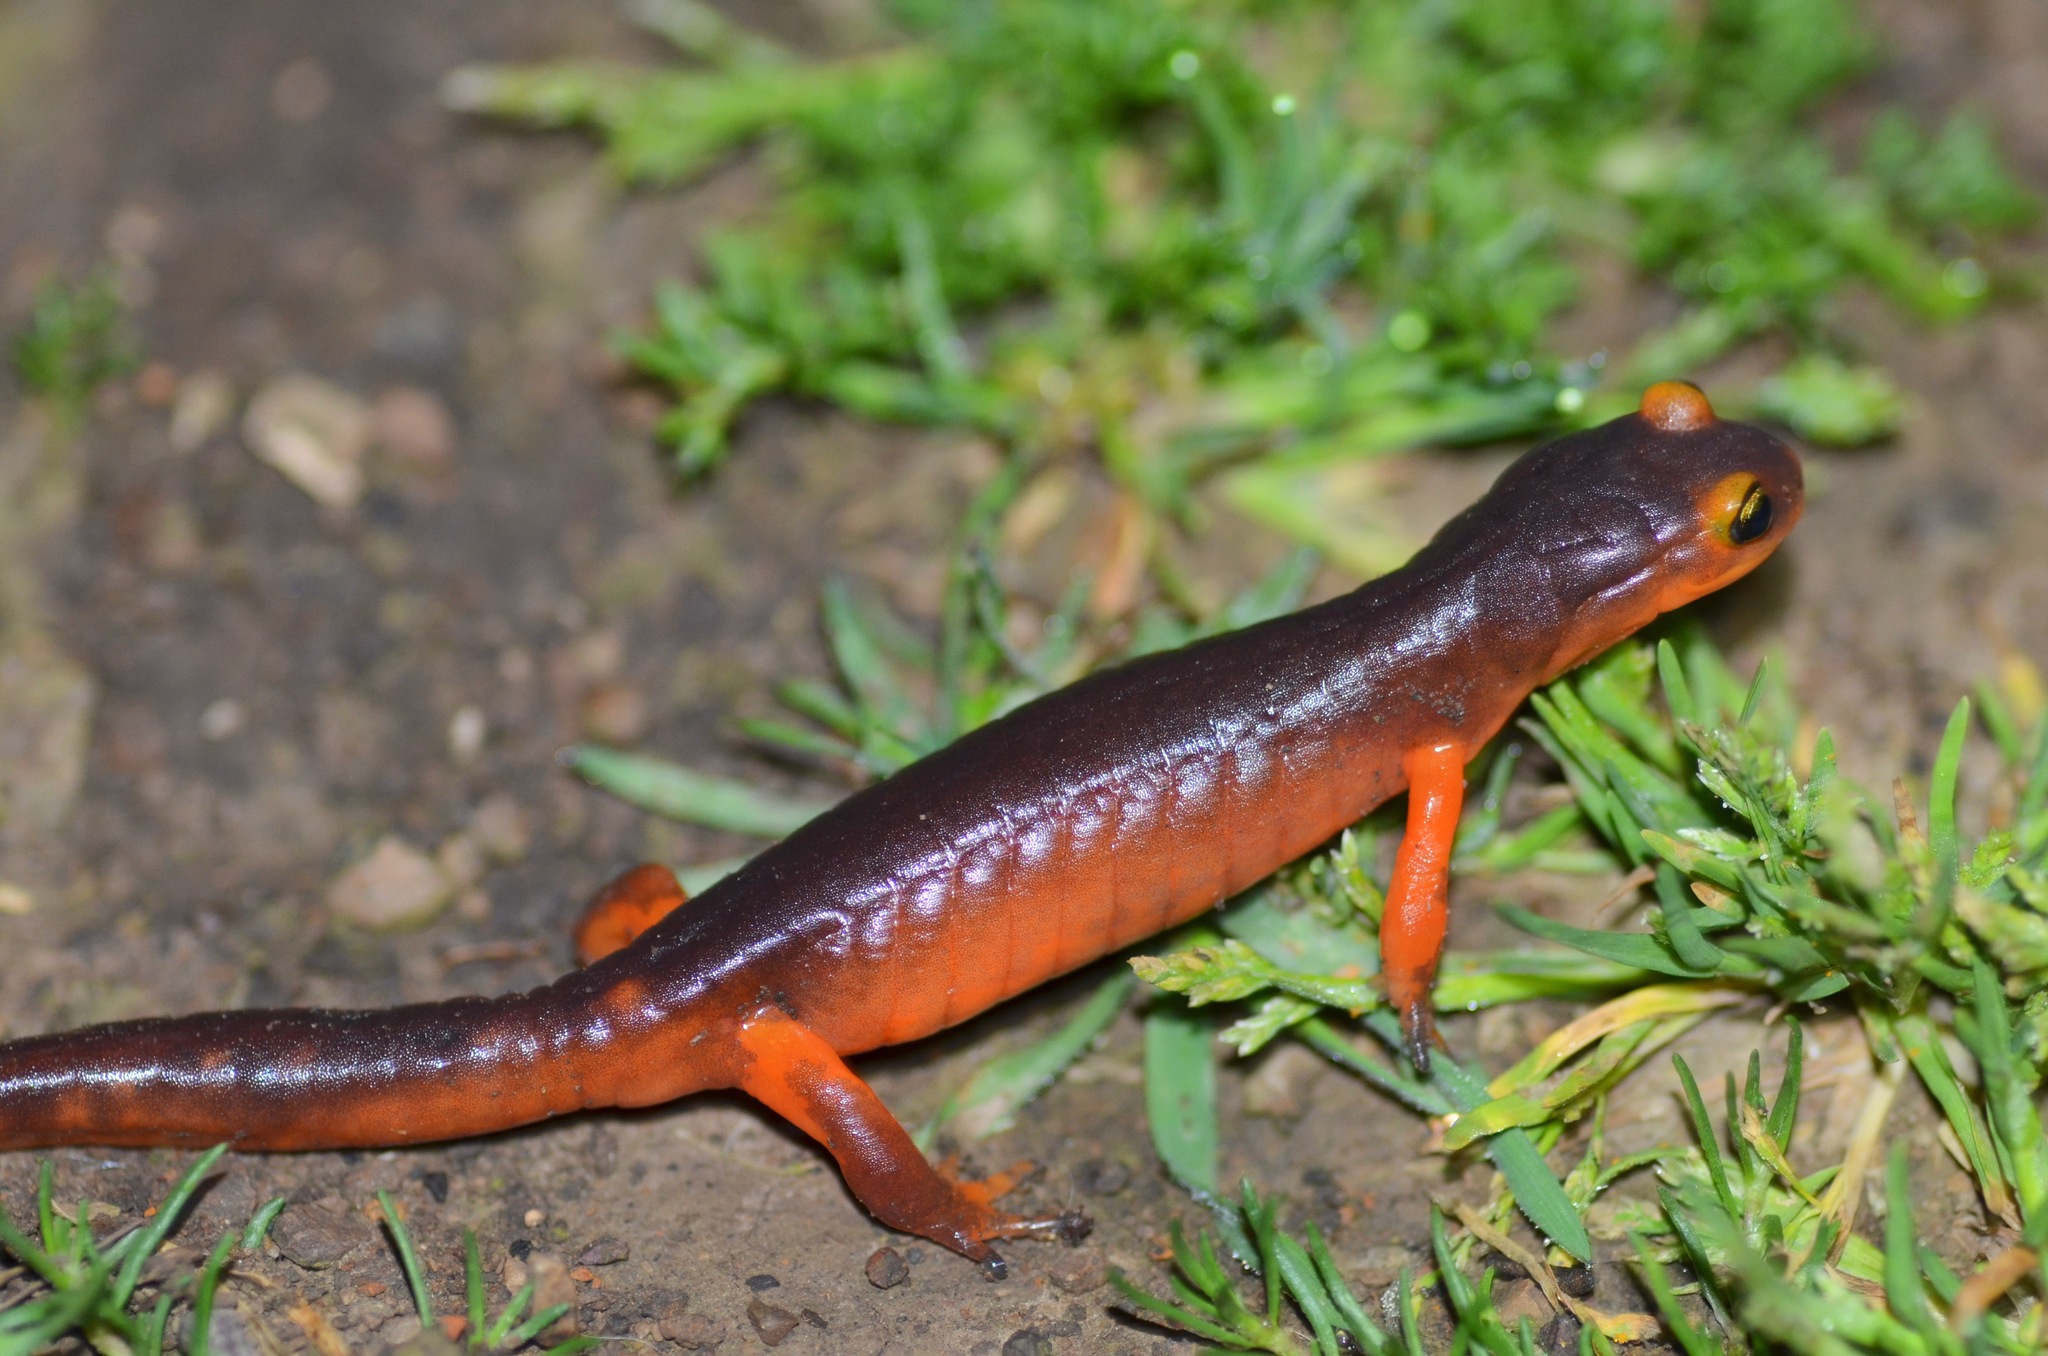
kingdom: Animalia
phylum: Chordata
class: Amphibia
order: Caudata
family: Plethodontidae
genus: Ensatina
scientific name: Ensatina eschscholtzii
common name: Ensatina
